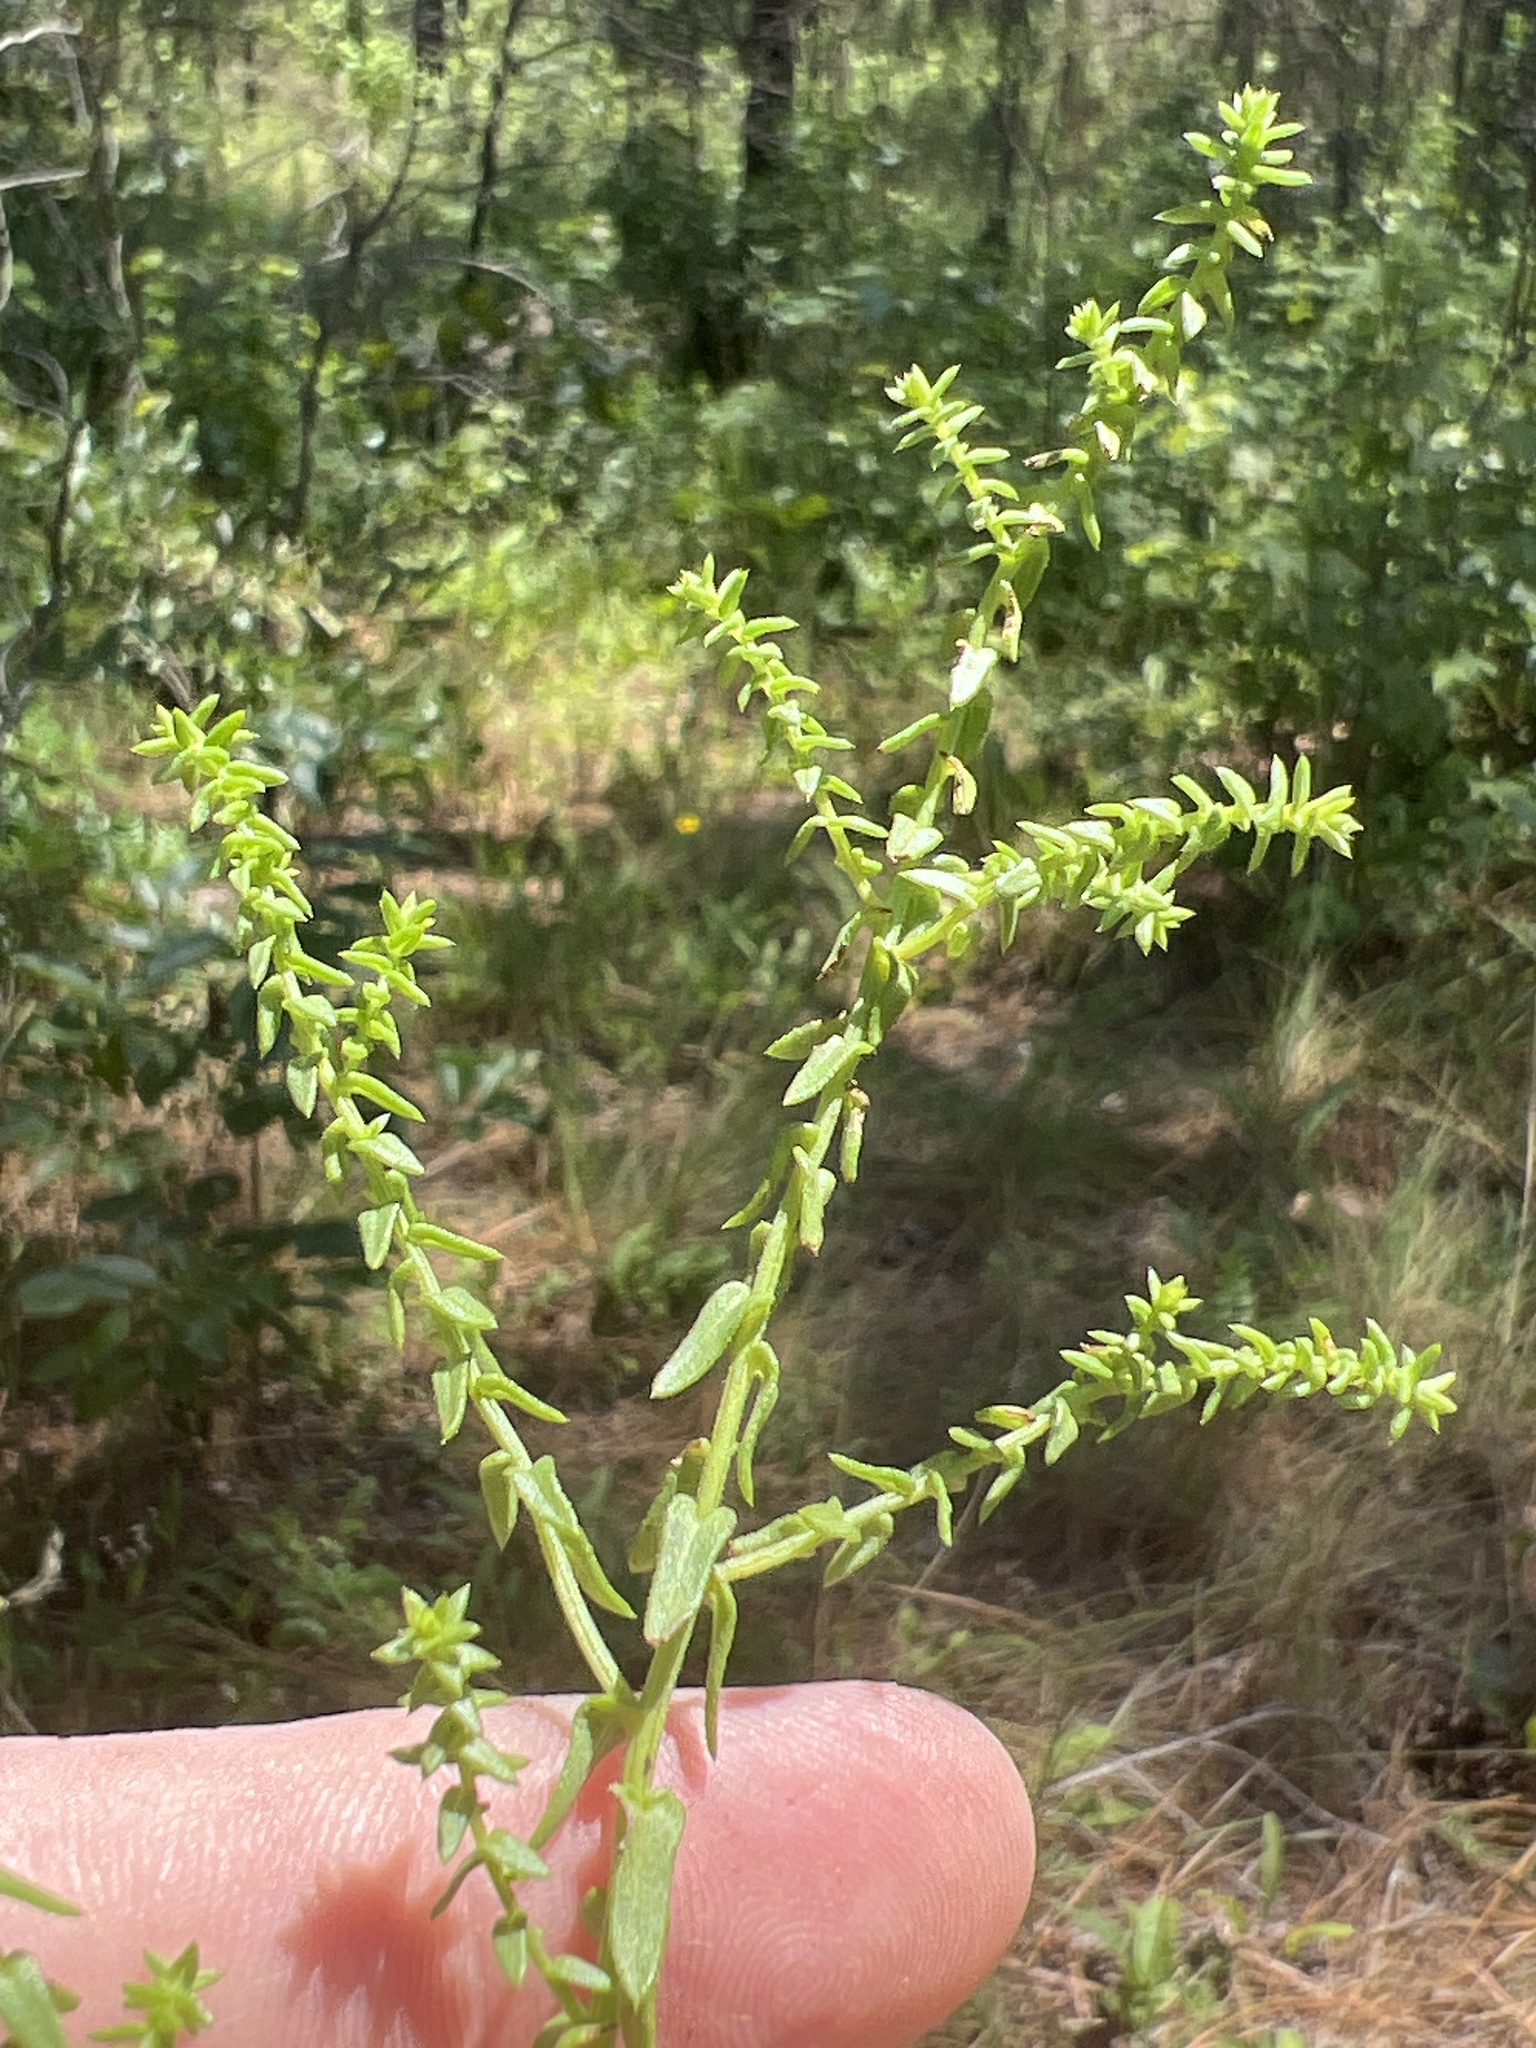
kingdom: Plantae
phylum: Tracheophyta
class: Magnoliopsida
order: Asterales
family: Asteraceae
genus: Symphyotrichum
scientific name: Symphyotrichum walteri
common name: Walter's aster
